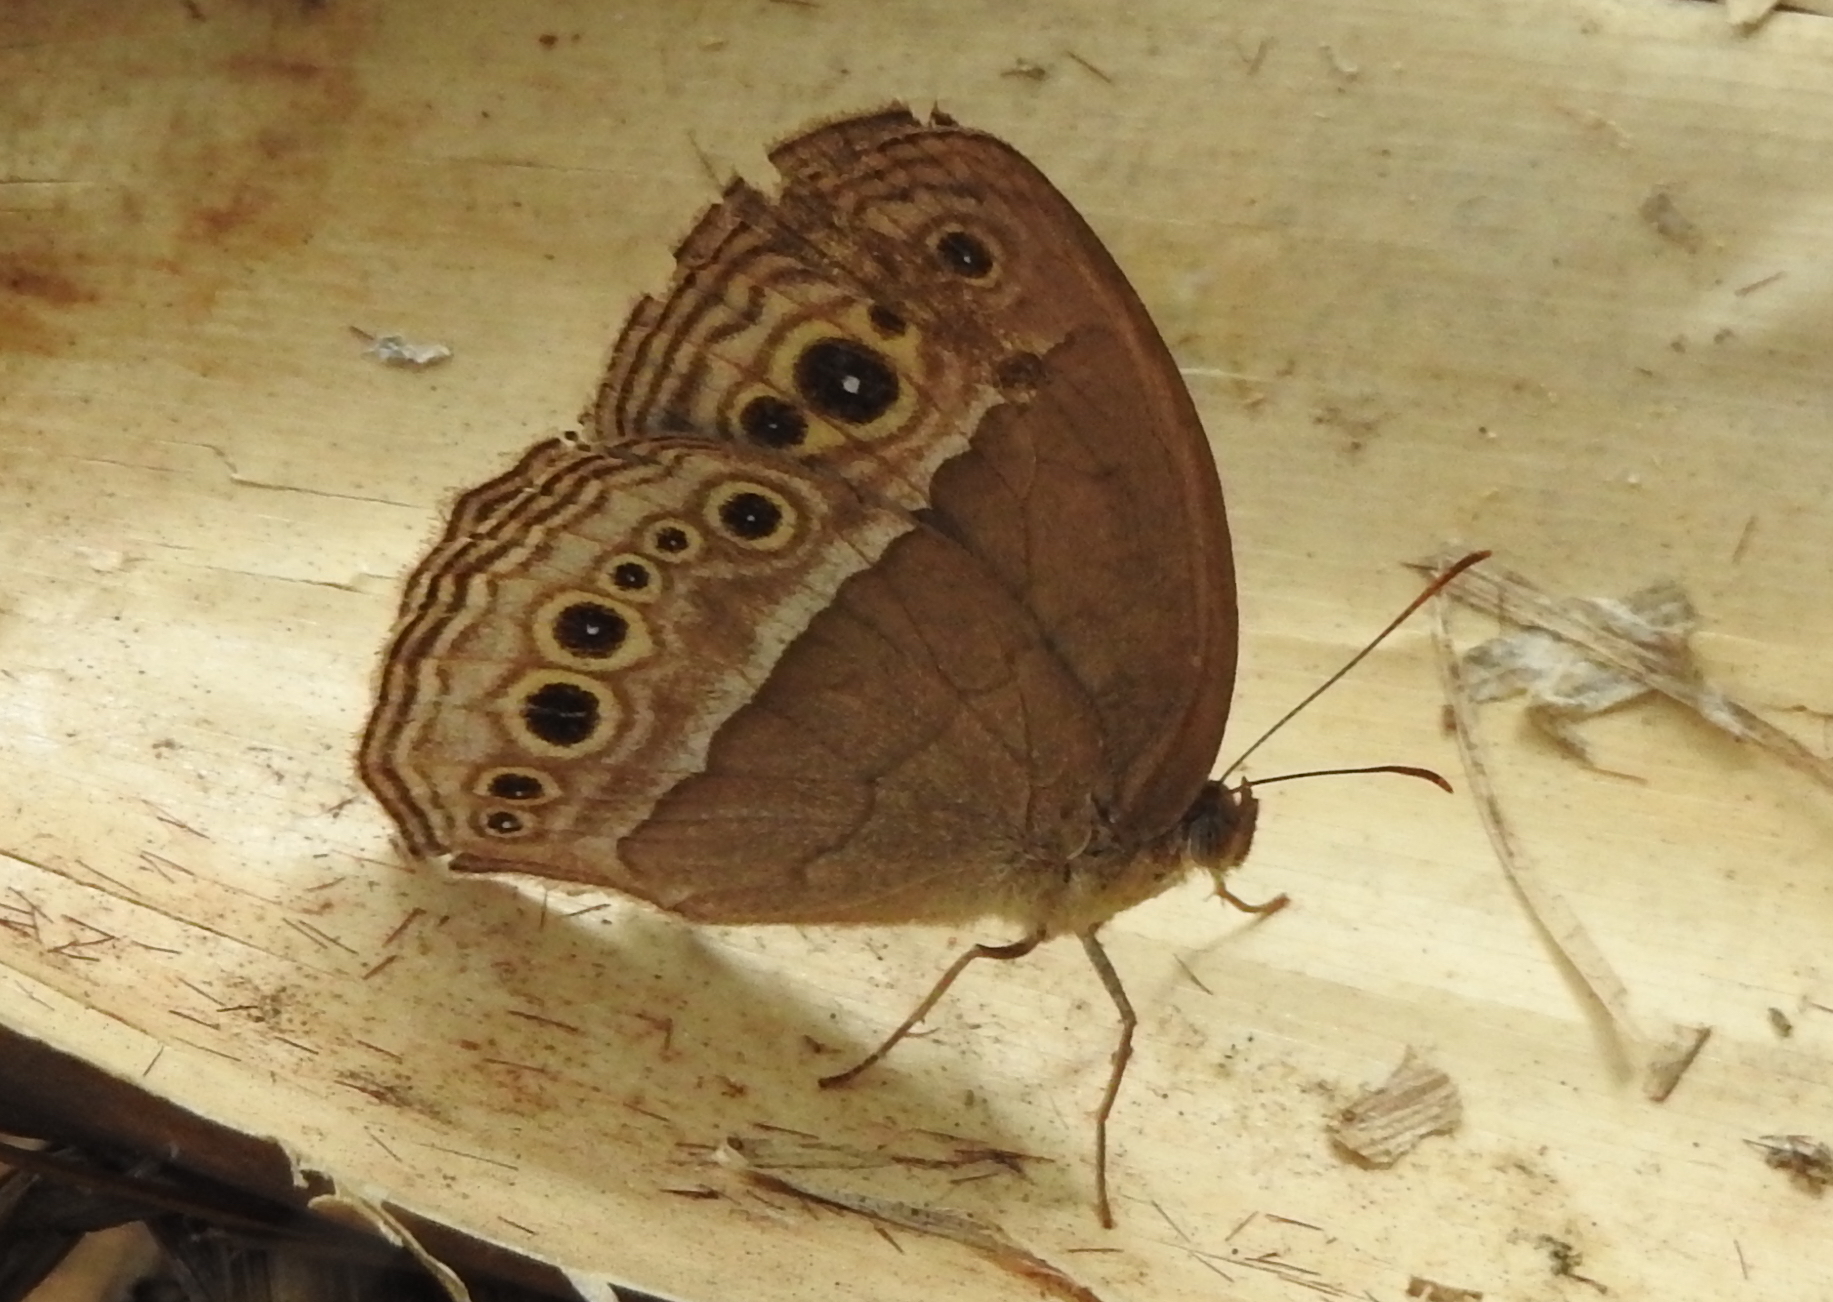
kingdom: Animalia
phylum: Arthropoda
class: Insecta
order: Lepidoptera
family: Nymphalidae
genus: Mycalesis
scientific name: Mycalesis perseoides
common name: Burmese bushbrown
